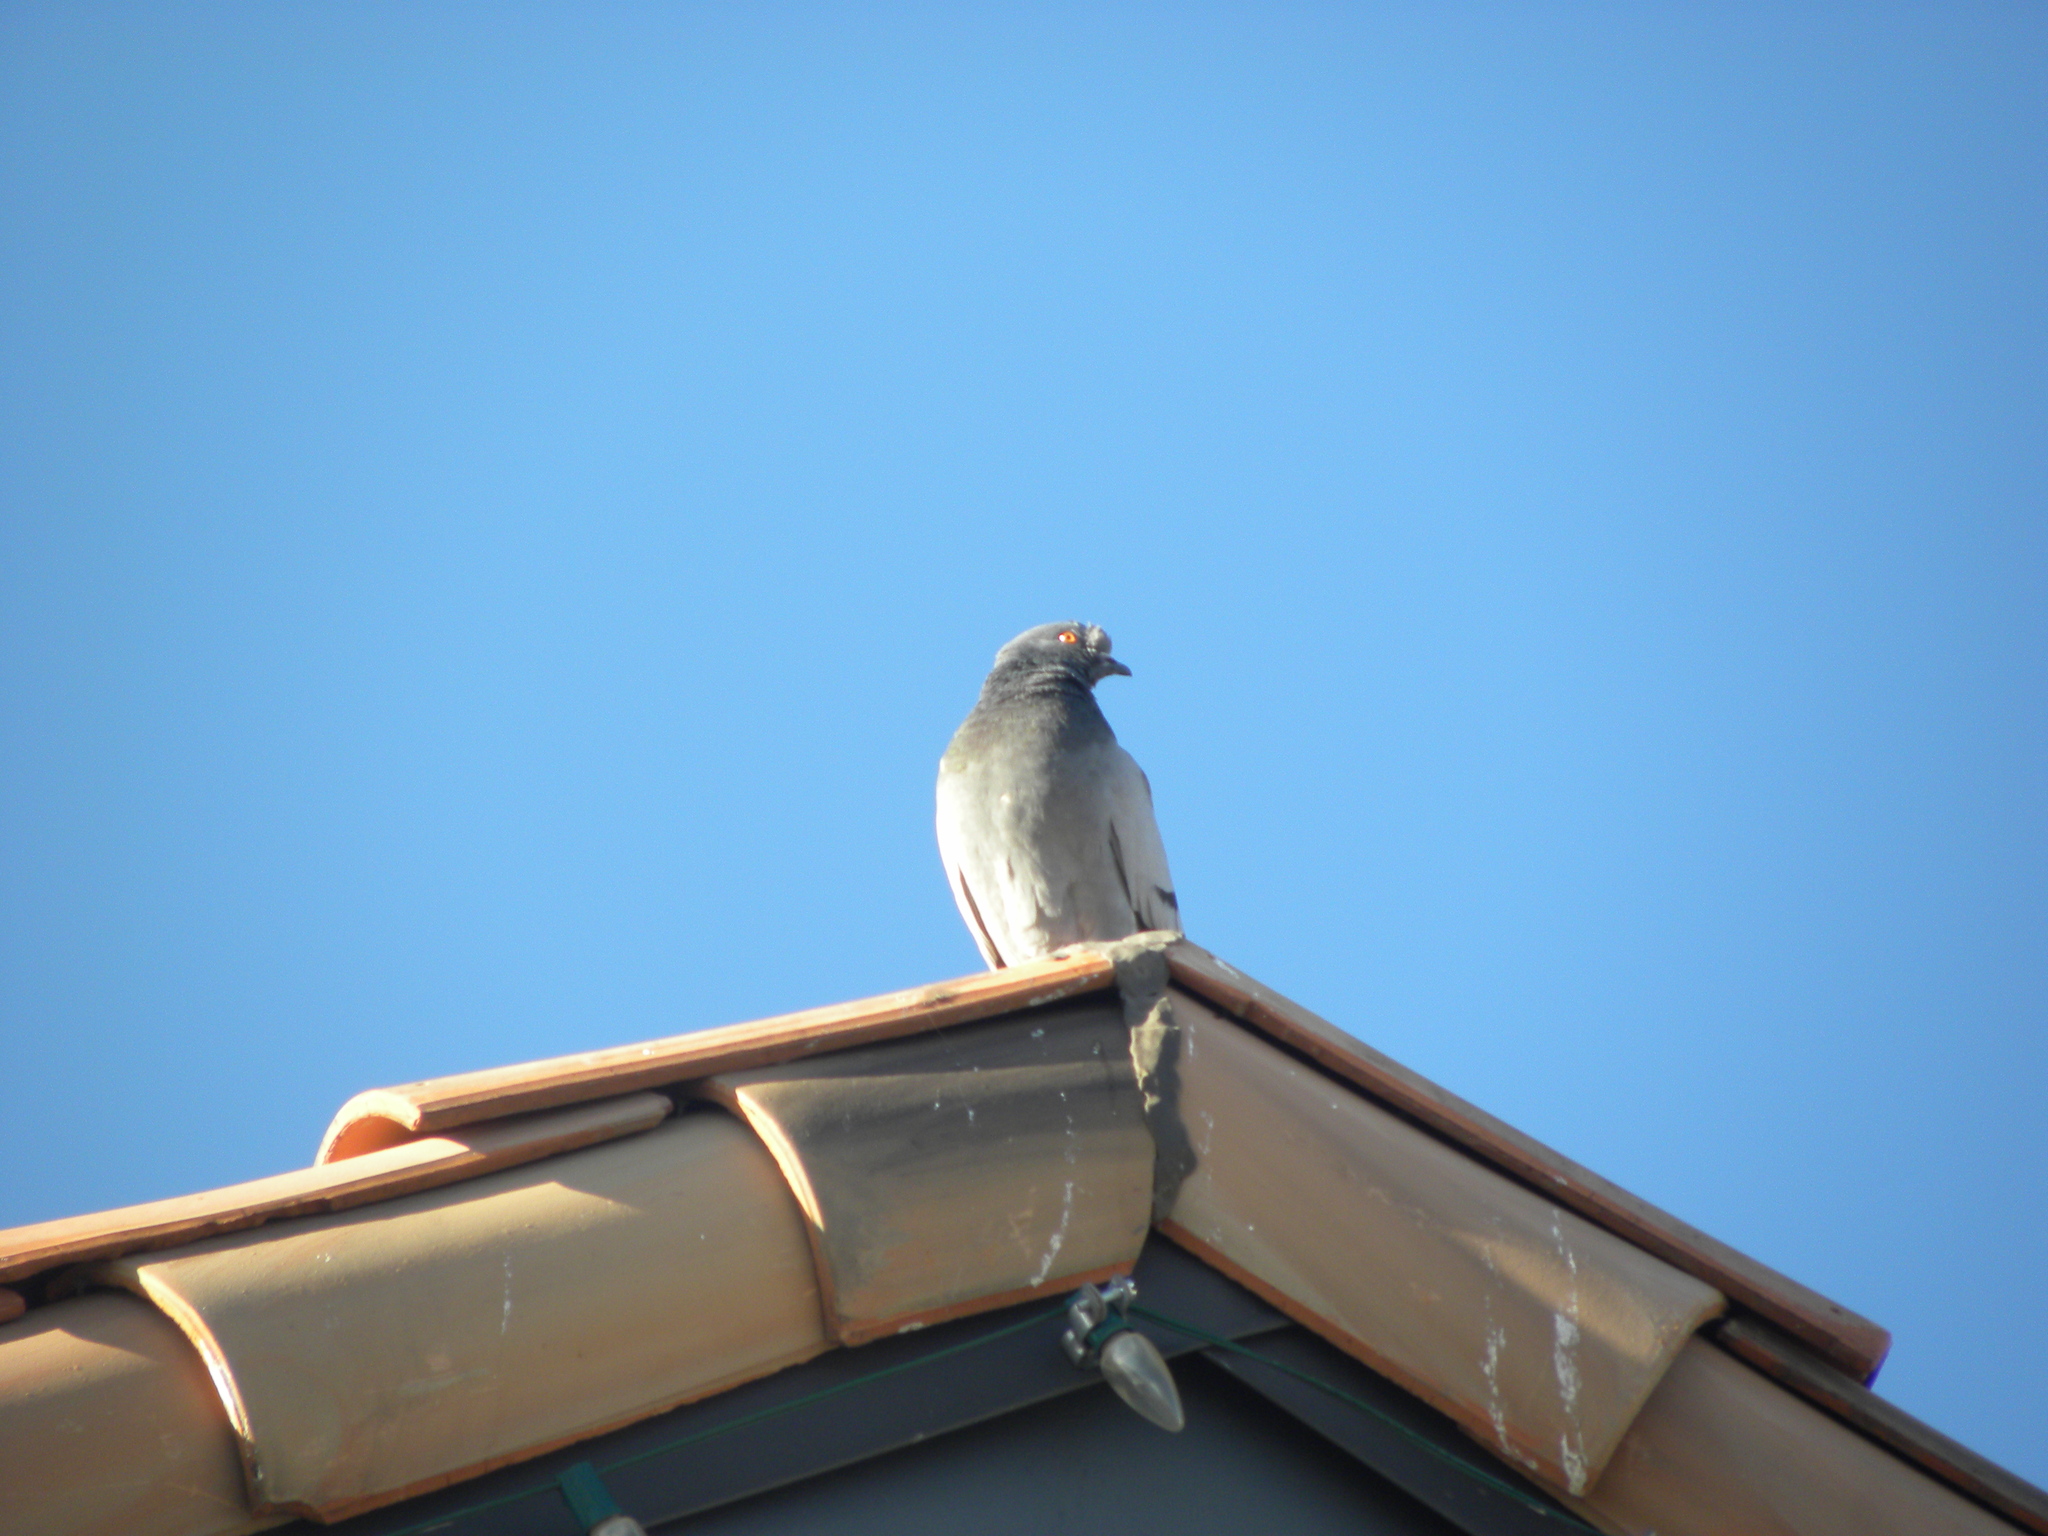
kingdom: Animalia
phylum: Chordata
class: Aves
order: Columbiformes
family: Columbidae
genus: Columba
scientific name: Columba livia
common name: Rock pigeon
